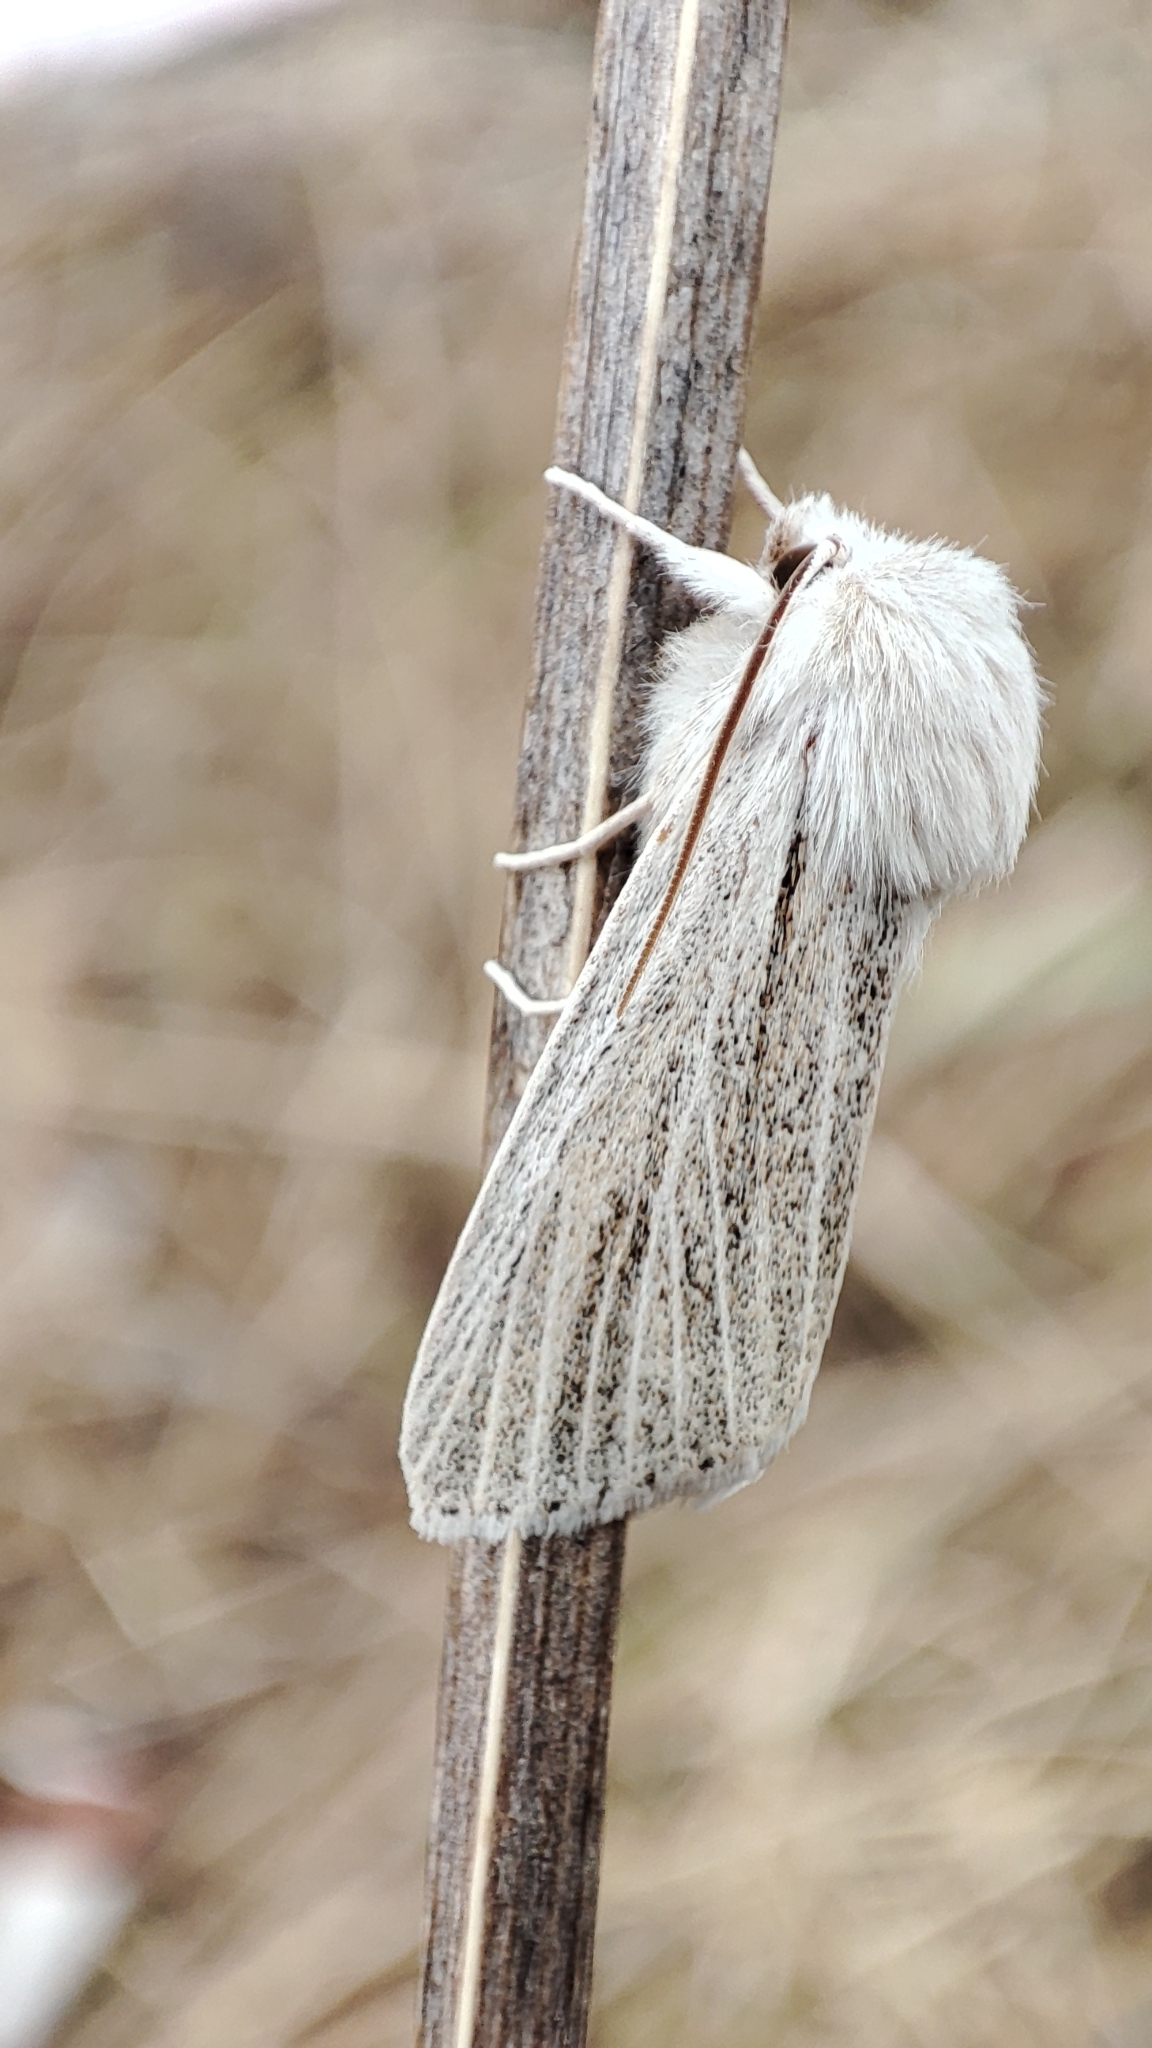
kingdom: Animalia
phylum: Arthropoda
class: Insecta
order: Lepidoptera
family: Noctuidae
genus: Simyra
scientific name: Simyra albovenosa
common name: Reed dagger
